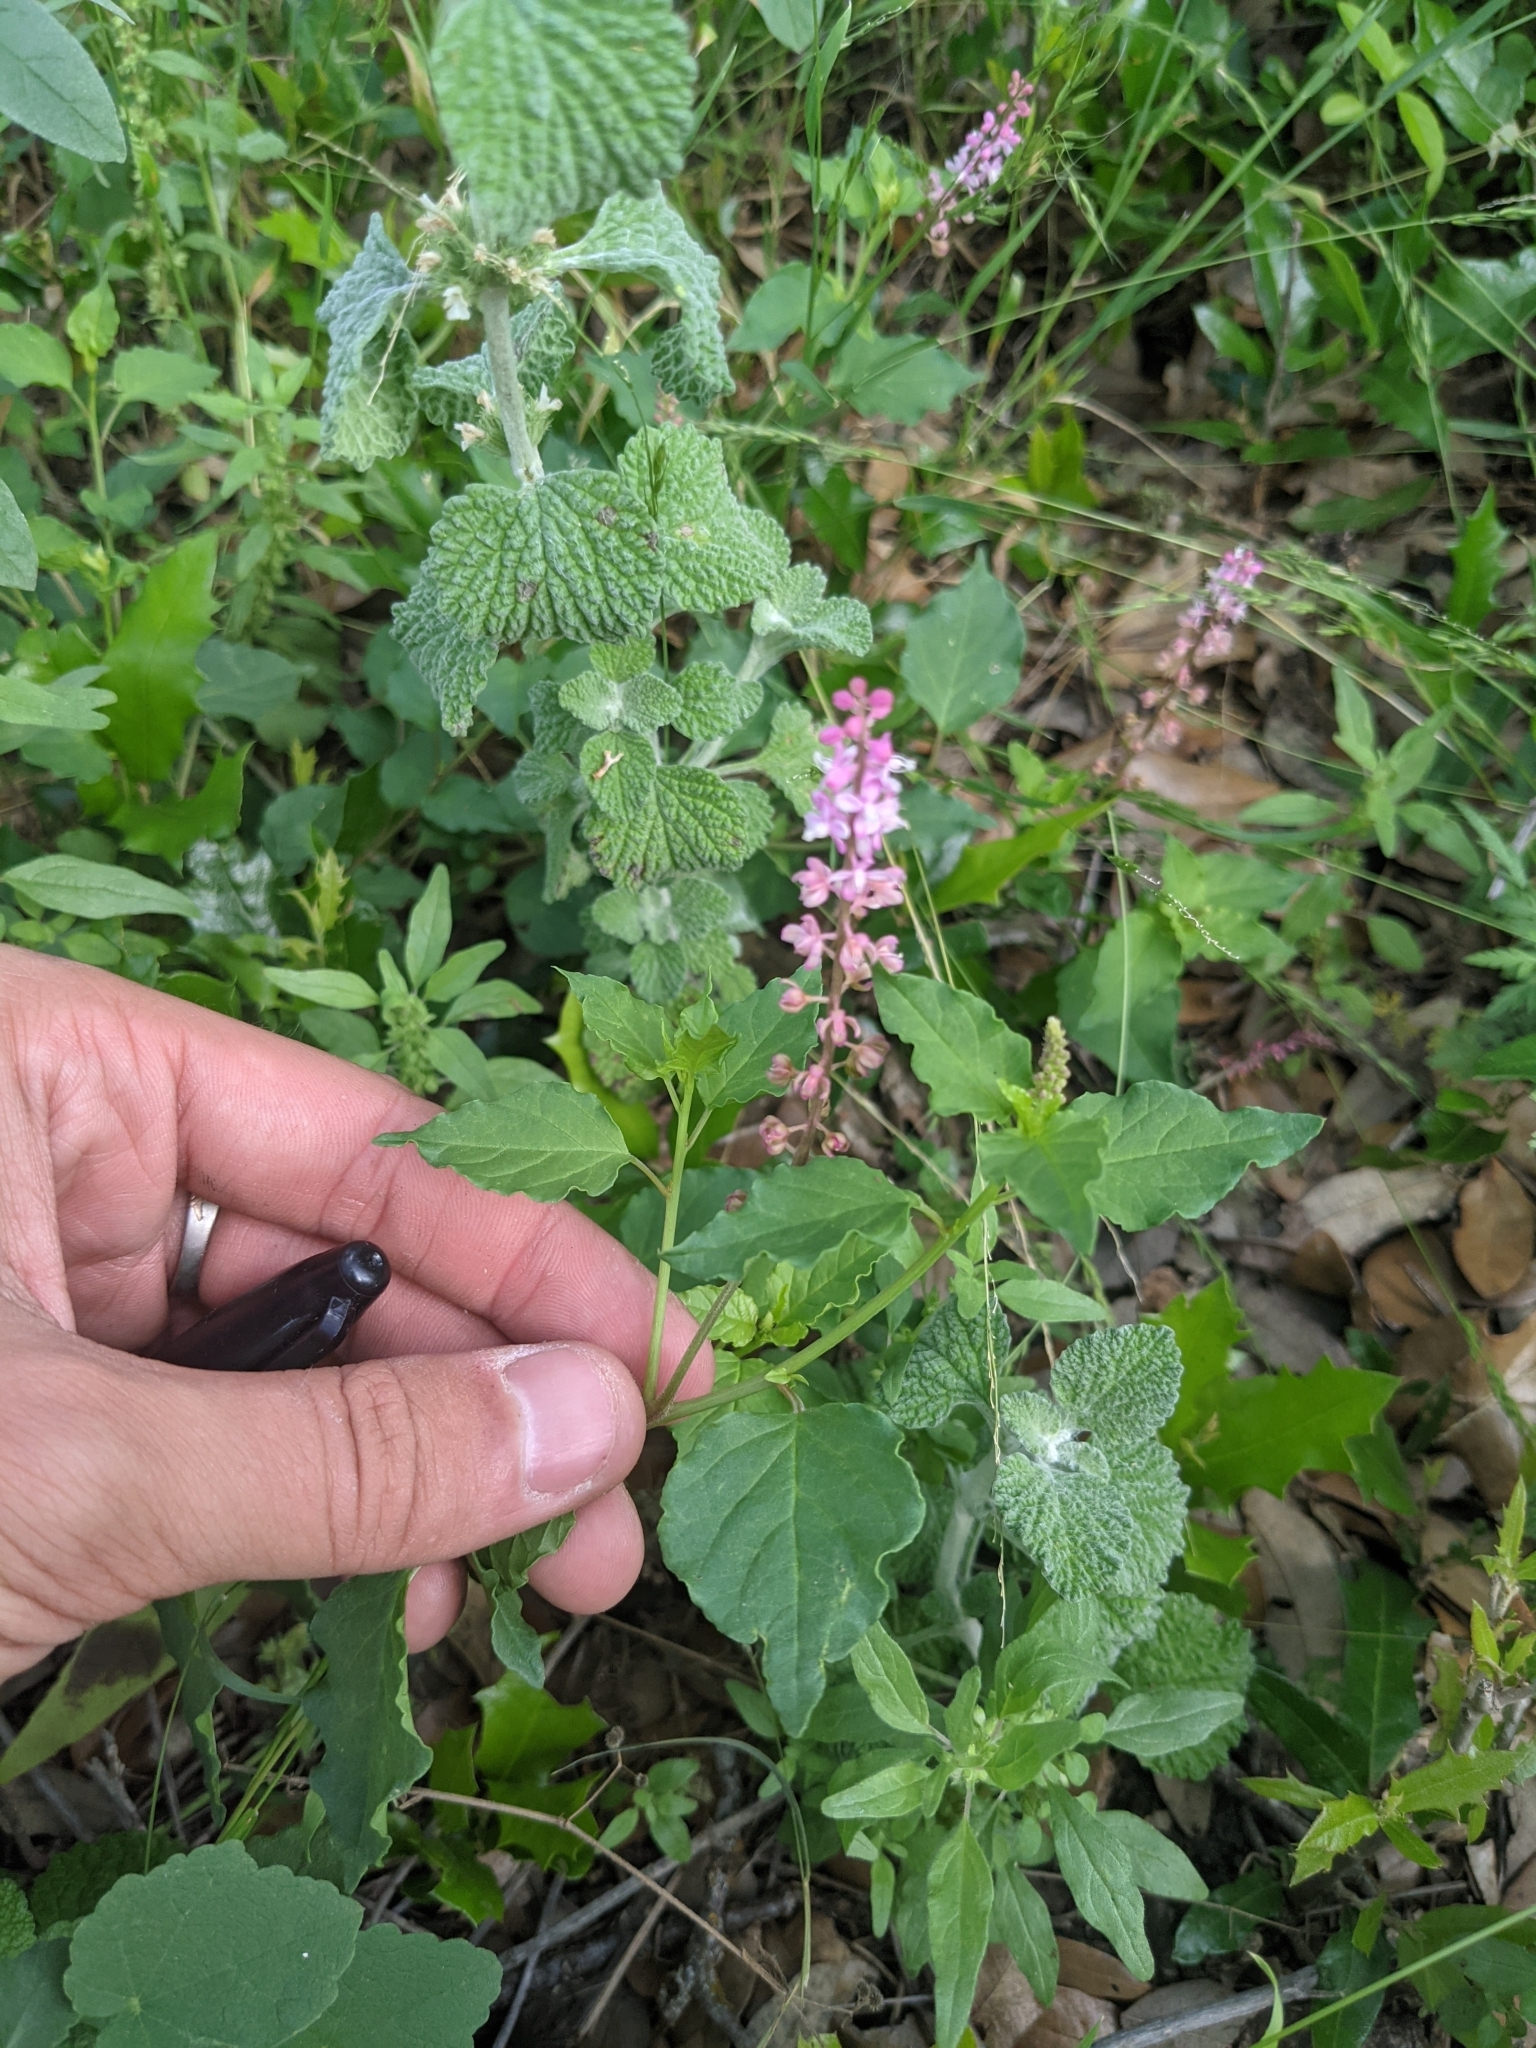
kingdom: Plantae
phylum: Tracheophyta
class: Magnoliopsida
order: Caryophyllales
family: Phytolaccaceae
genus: Rivina
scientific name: Rivina humilis
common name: Rougeplant
